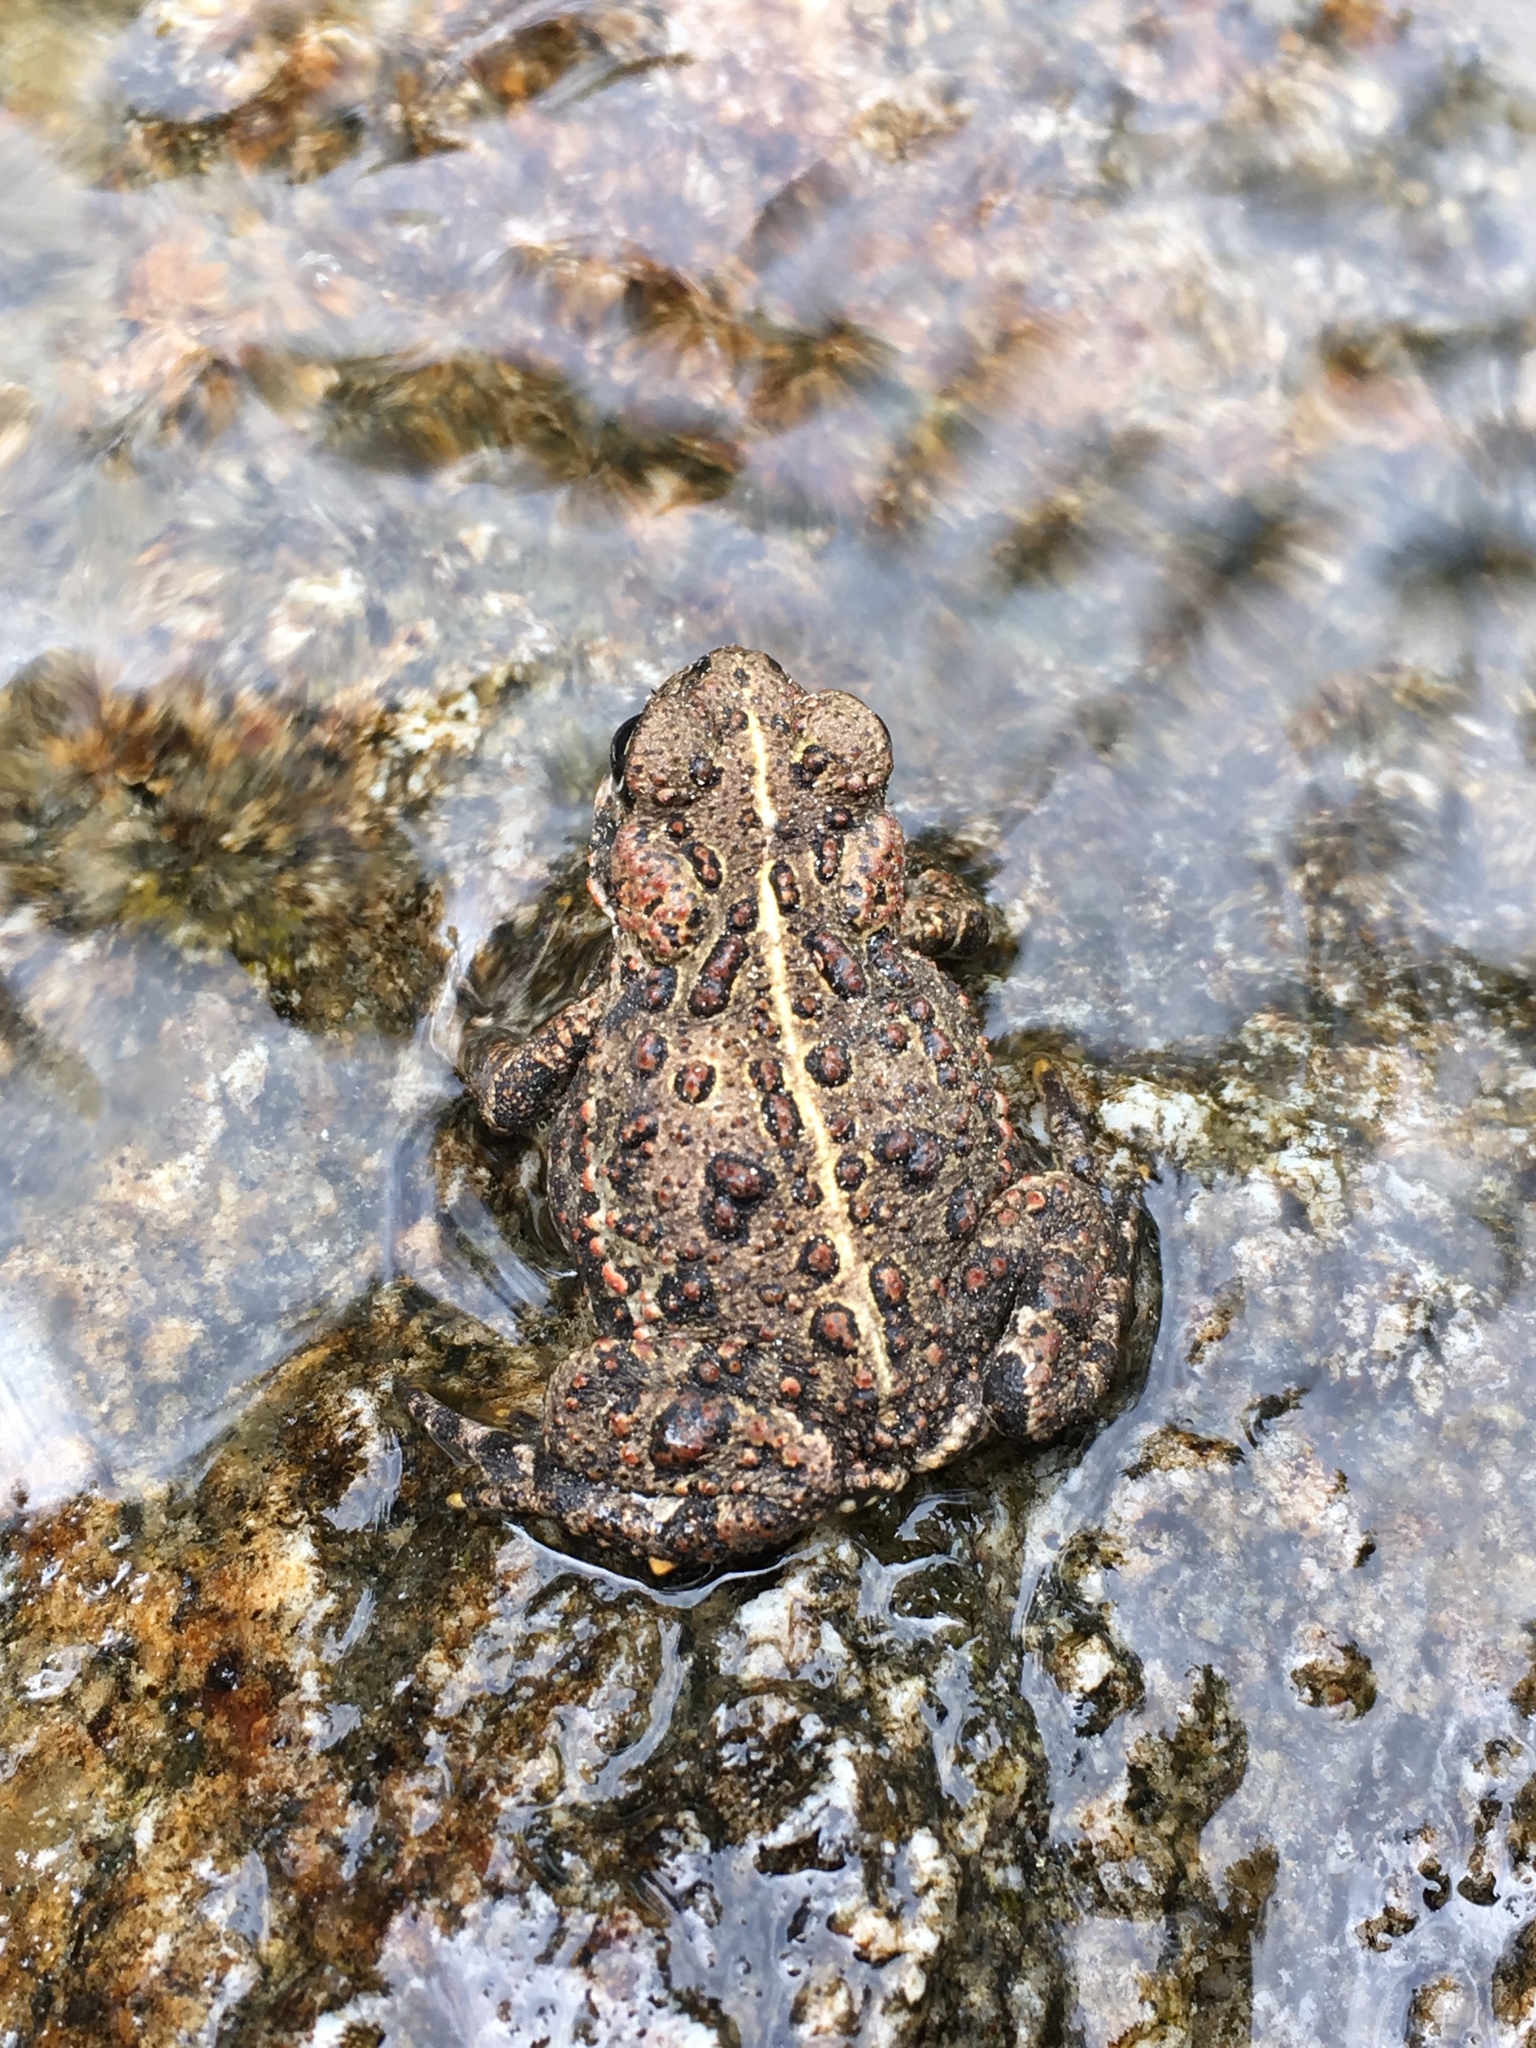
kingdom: Animalia
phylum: Chordata
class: Amphibia
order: Anura
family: Bufonidae
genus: Anaxyrus
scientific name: Anaxyrus boreas
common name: Western toad
